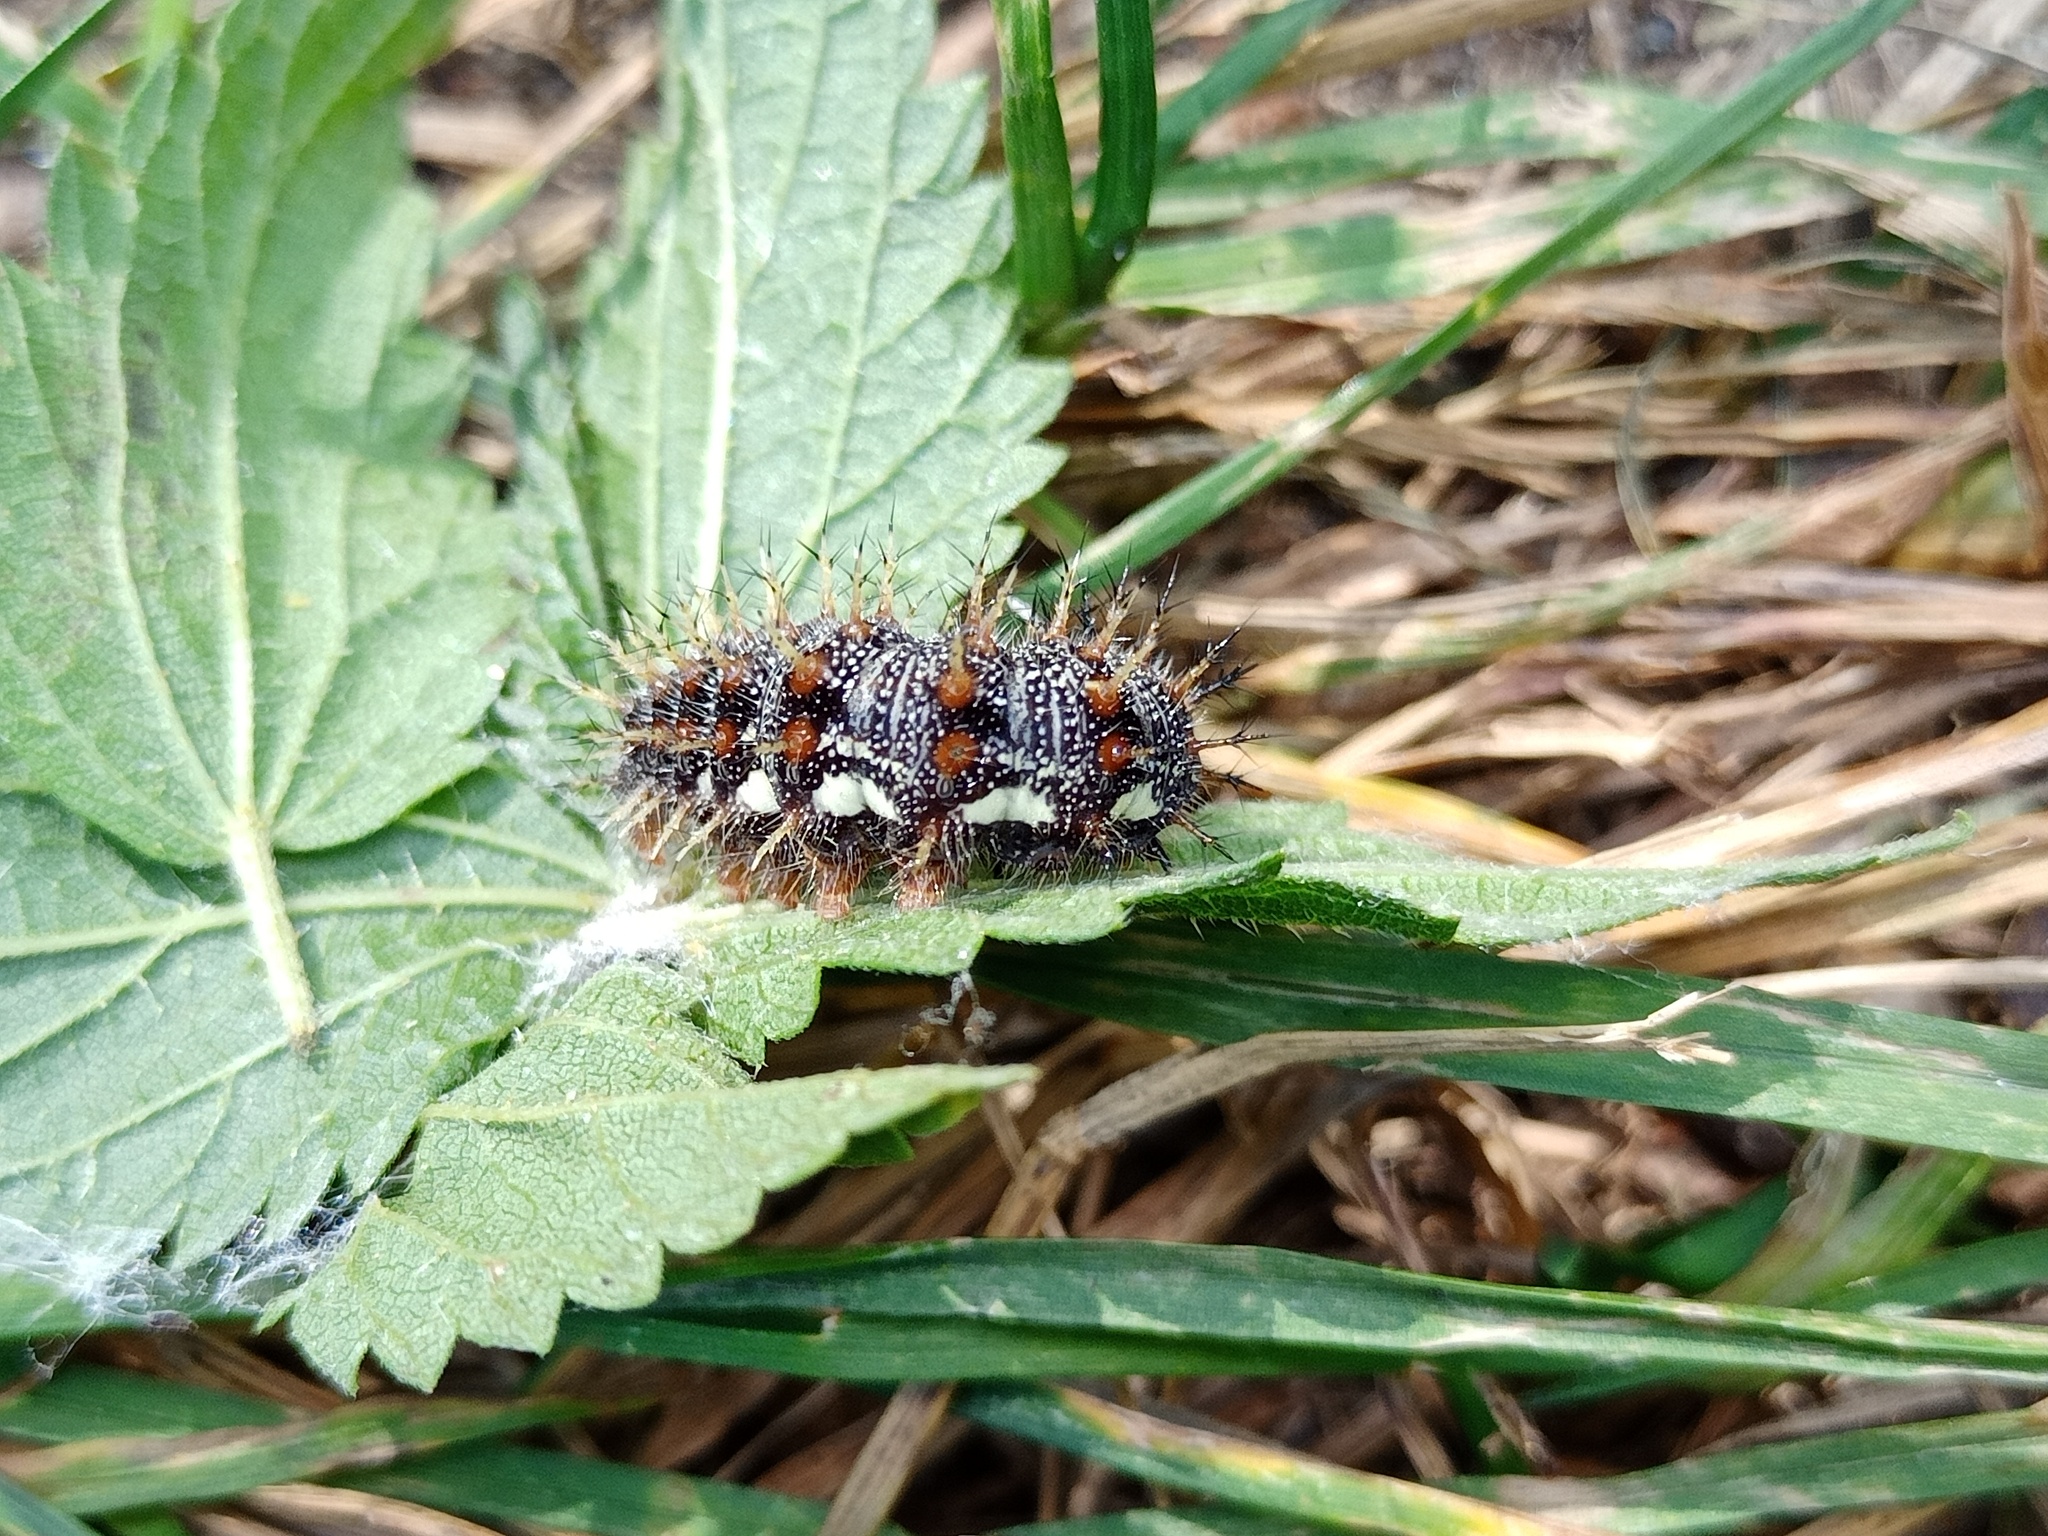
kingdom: Animalia
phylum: Arthropoda
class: Insecta
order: Lepidoptera
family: Nymphalidae
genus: Vanessa
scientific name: Vanessa atalanta
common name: Red admiral
